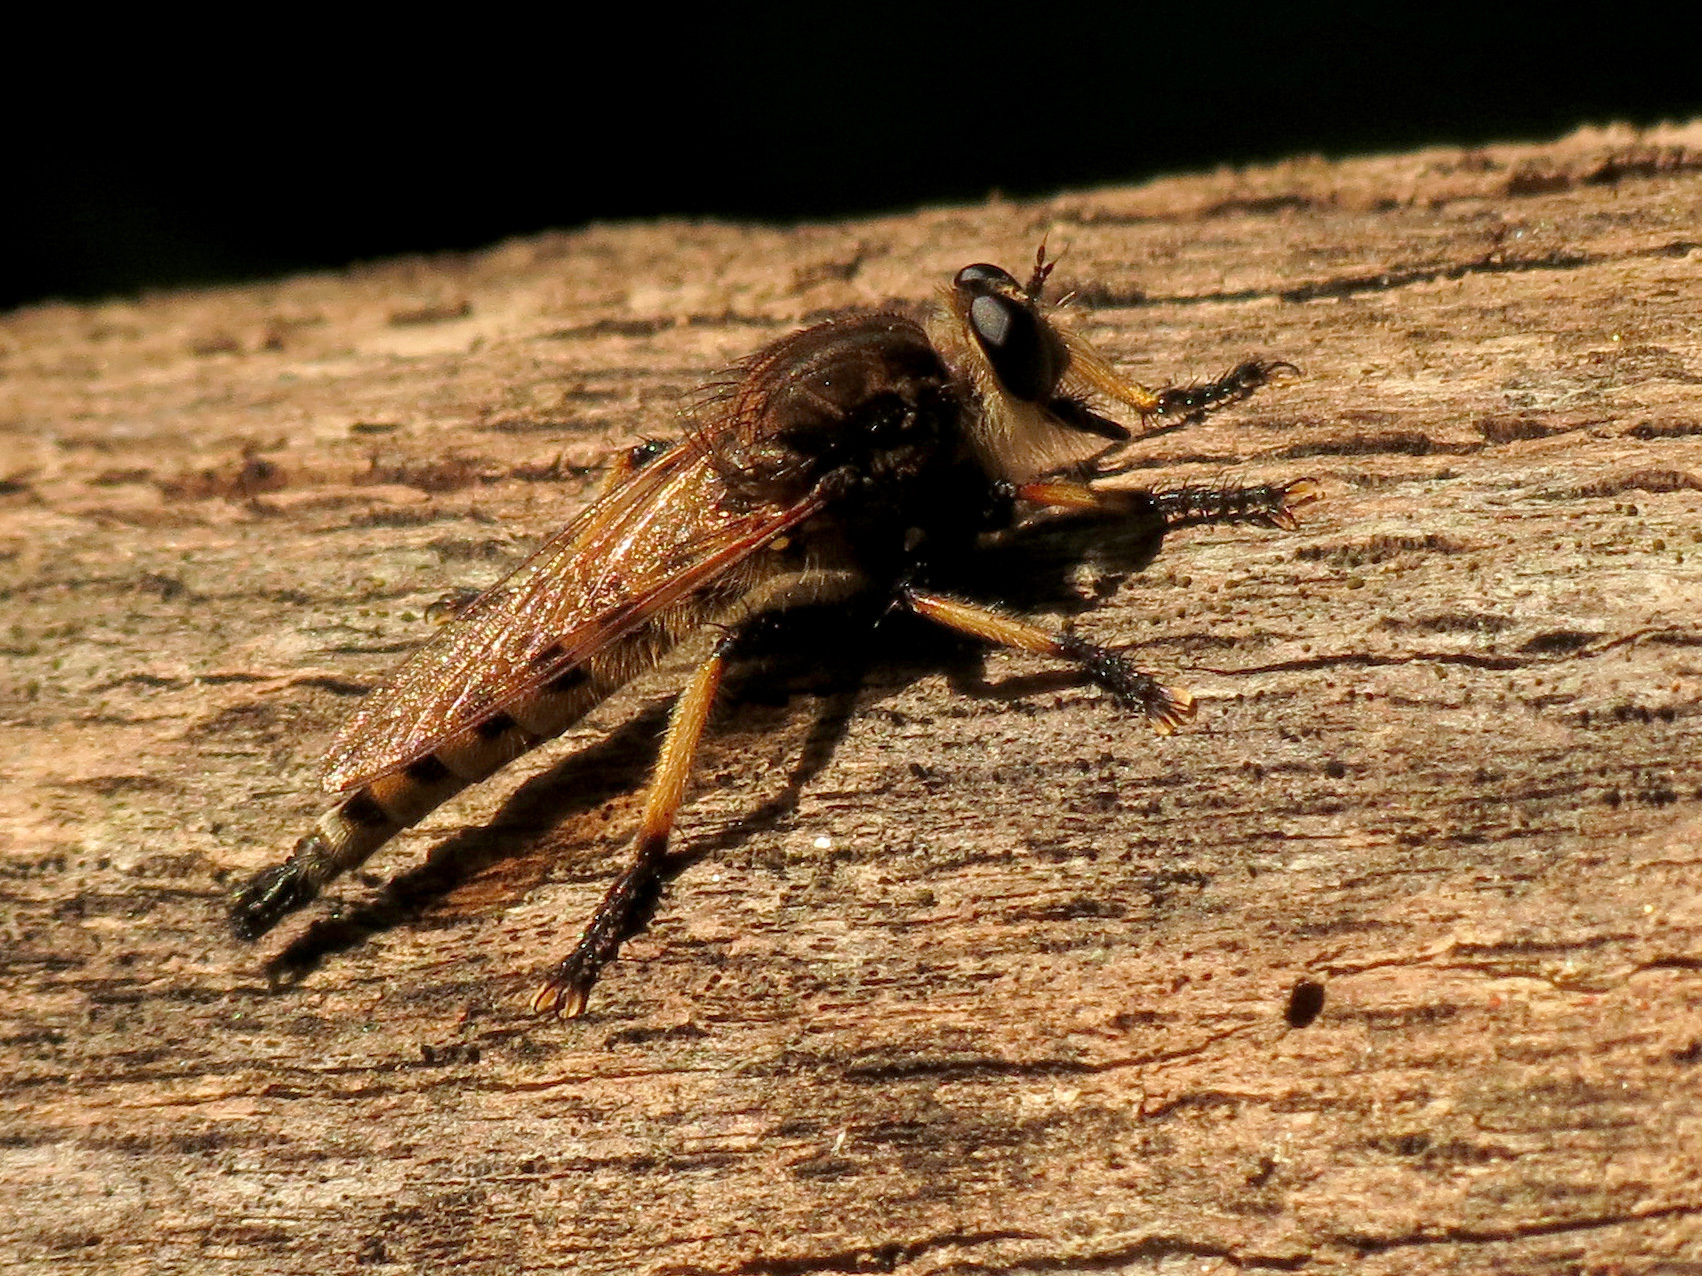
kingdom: Animalia
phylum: Arthropoda
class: Insecta
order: Diptera
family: Asilidae
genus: Promachus
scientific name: Promachus rufipes
